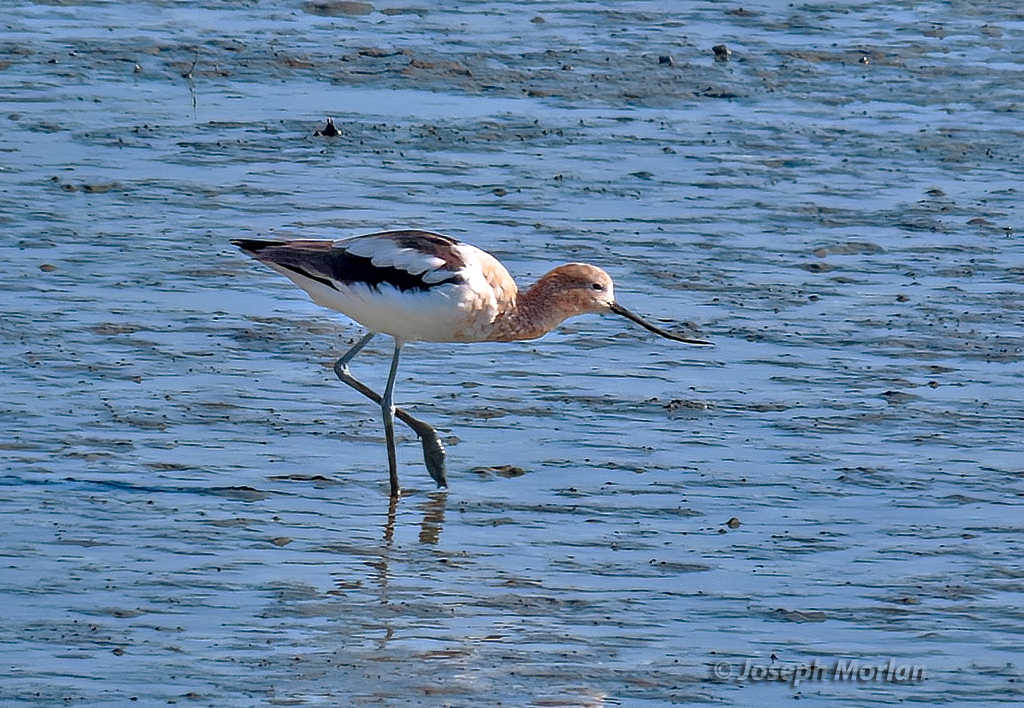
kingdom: Animalia
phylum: Chordata
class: Aves
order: Charadriiformes
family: Recurvirostridae
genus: Recurvirostra
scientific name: Recurvirostra americana
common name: American avocet
